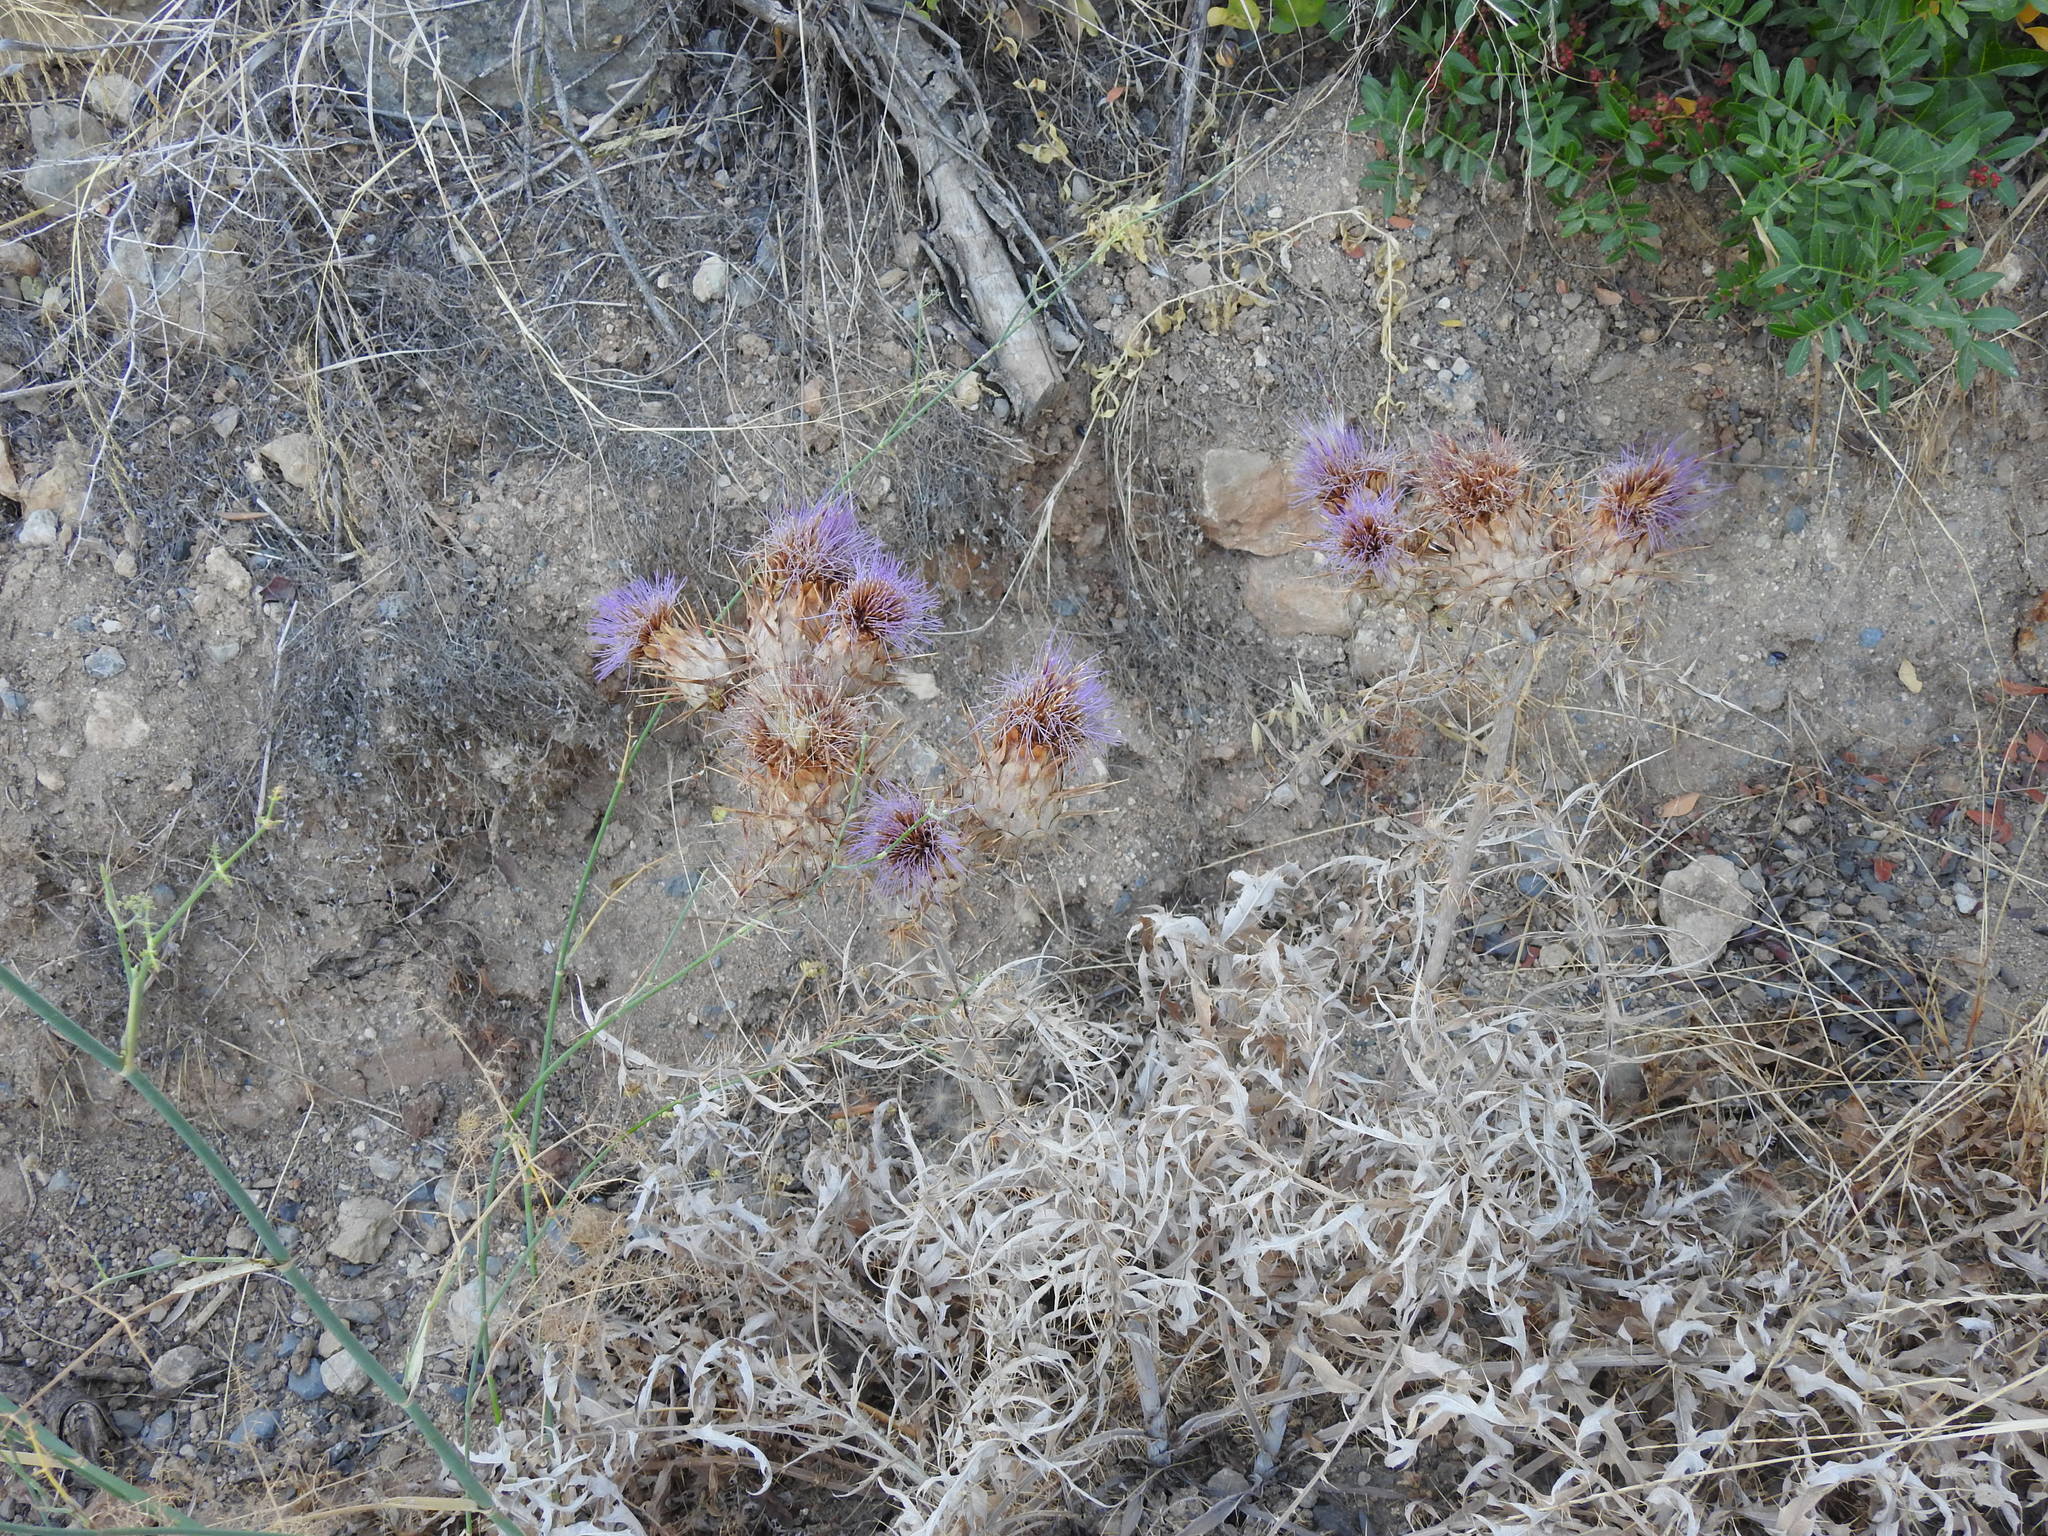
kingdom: Plantae
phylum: Tracheophyta
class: Magnoliopsida
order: Asterales
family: Asteraceae
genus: Cynara
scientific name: Cynara cardunculus
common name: Globe artichoke
